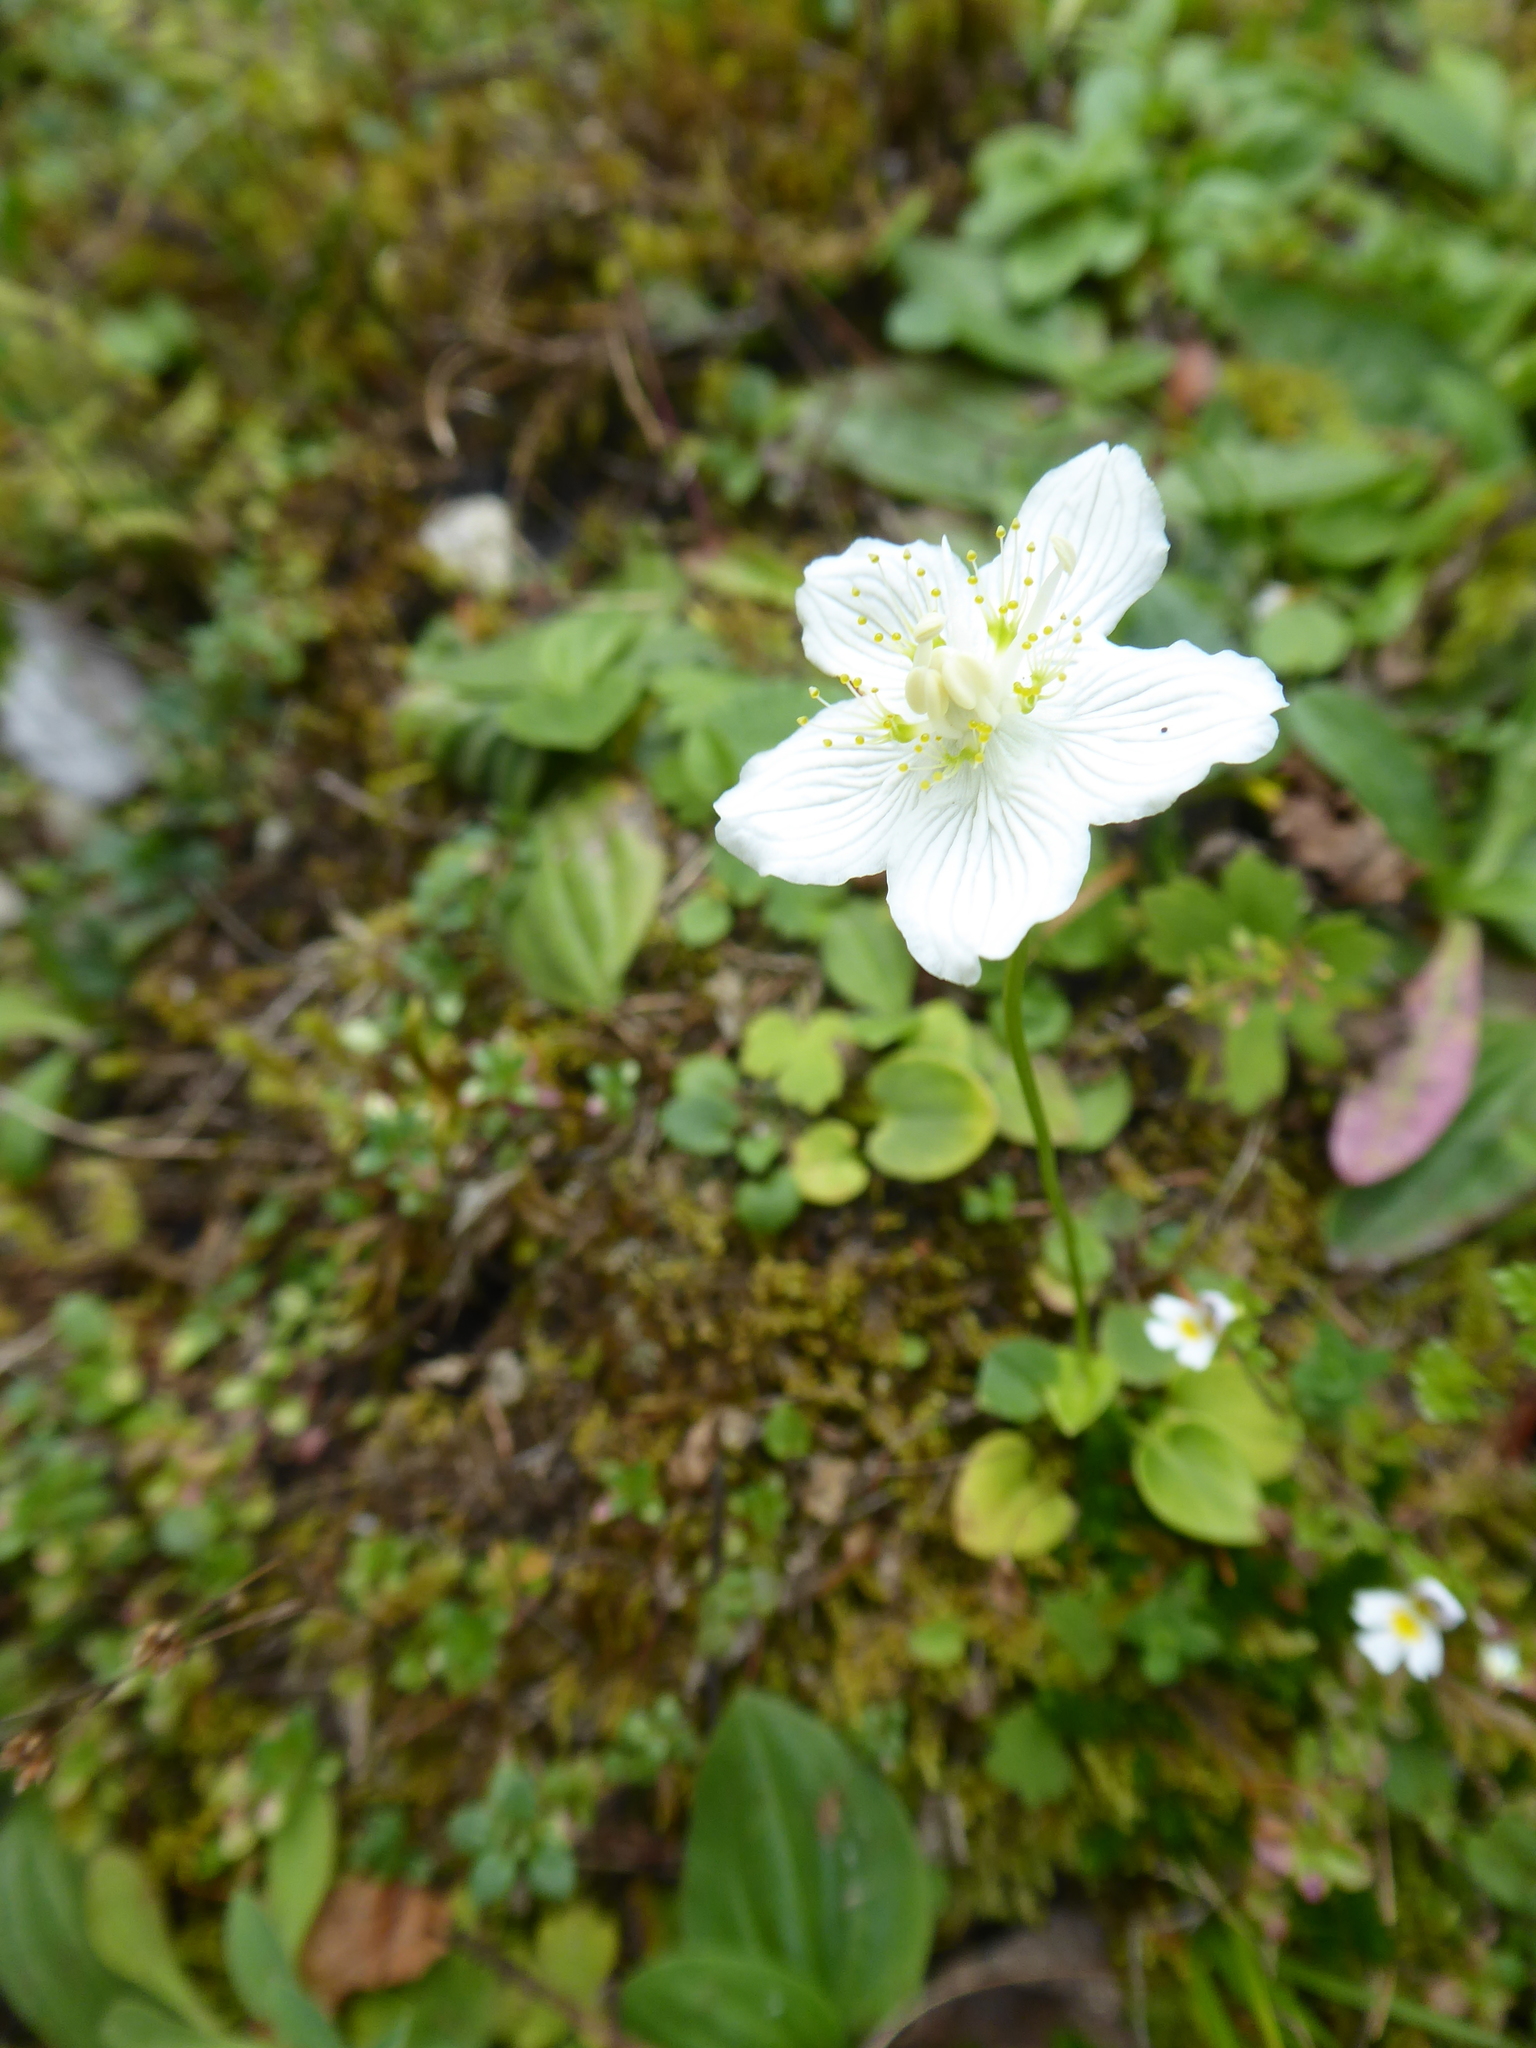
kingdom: Plantae
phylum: Tracheophyta
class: Magnoliopsida
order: Celastrales
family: Parnassiaceae
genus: Parnassia
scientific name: Parnassia palustris
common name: Grass-of-parnassus
